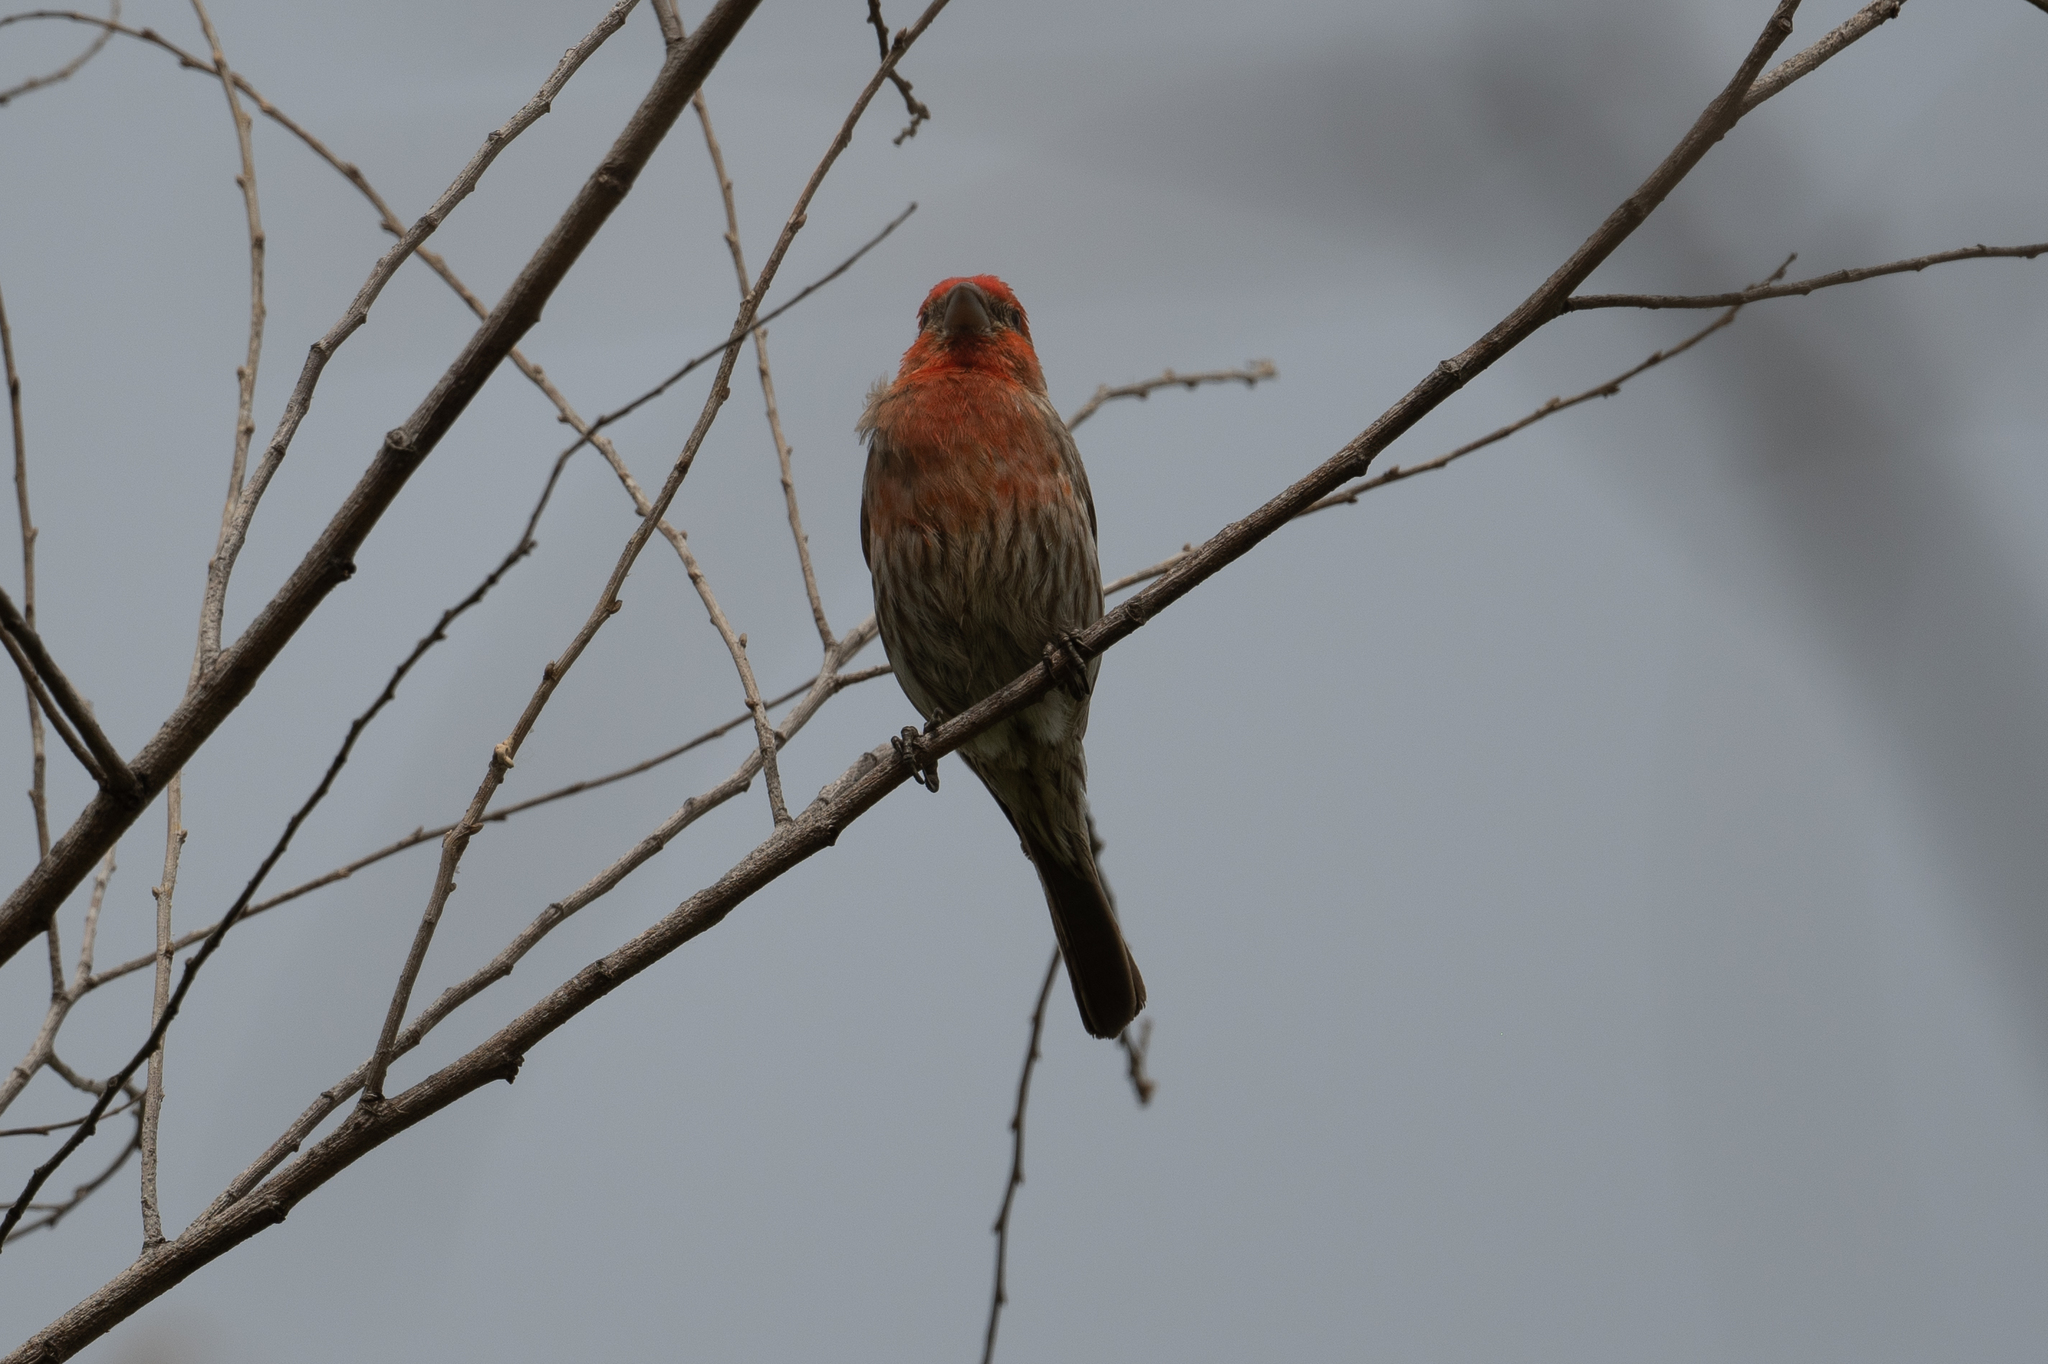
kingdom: Animalia
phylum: Chordata
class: Aves
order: Passeriformes
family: Fringillidae
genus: Haemorhous
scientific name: Haemorhous mexicanus
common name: House finch
